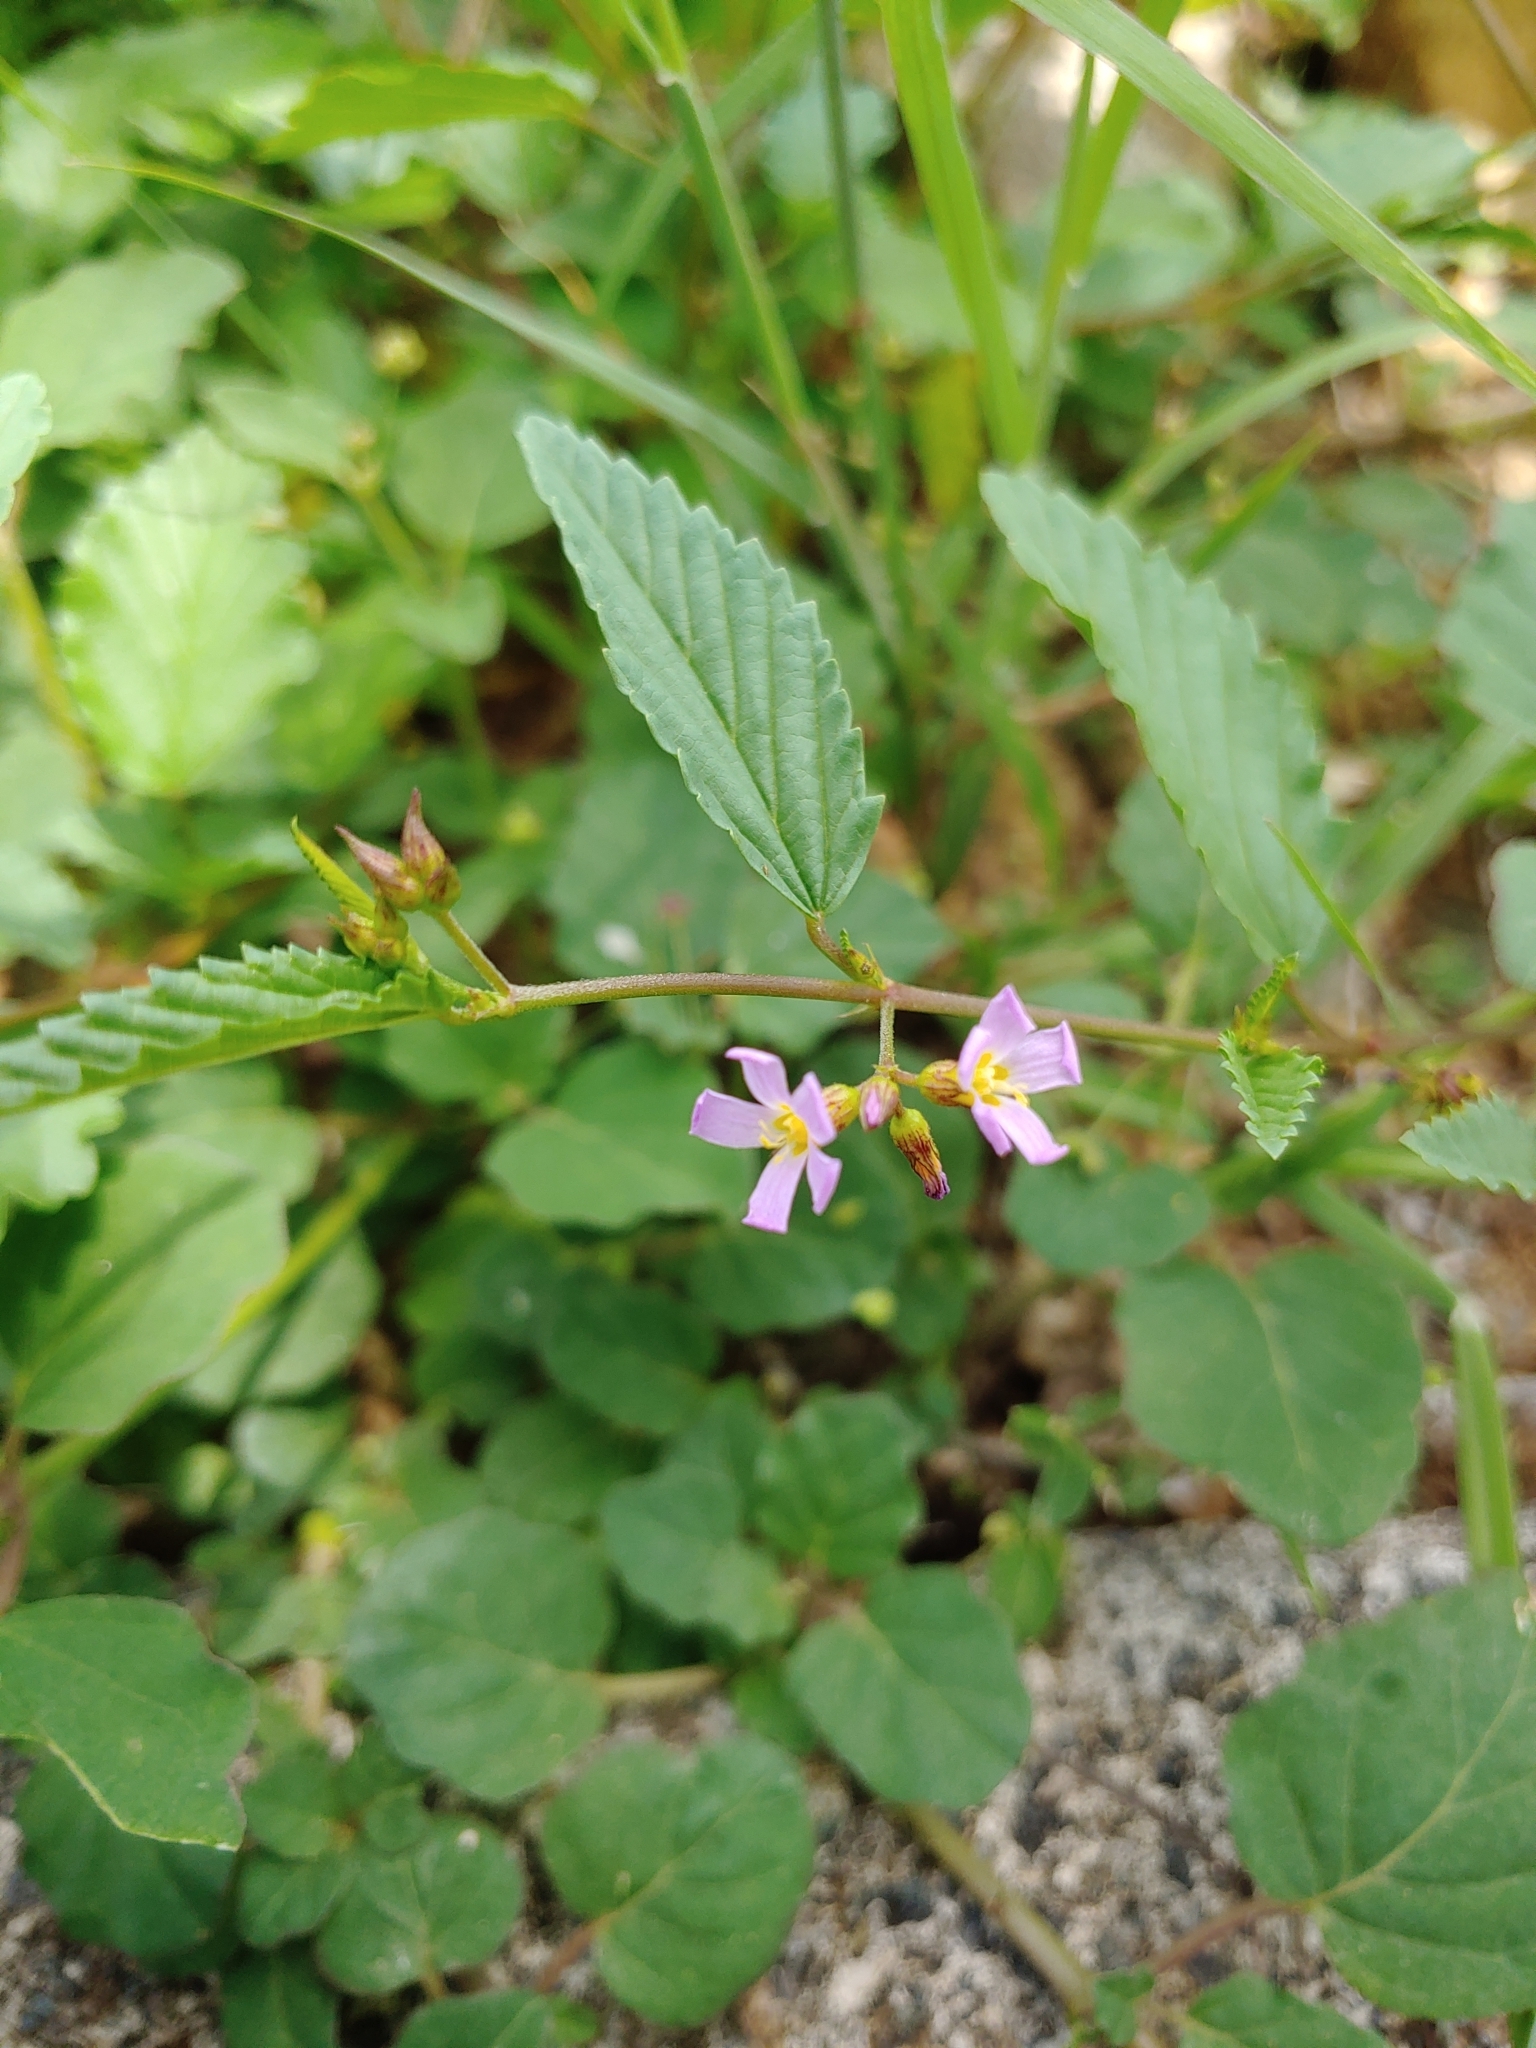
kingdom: Plantae
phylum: Tracheophyta
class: Magnoliopsida
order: Malvales
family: Malvaceae
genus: Melochia
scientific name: Melochia pyramidata
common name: Pyramidflower
